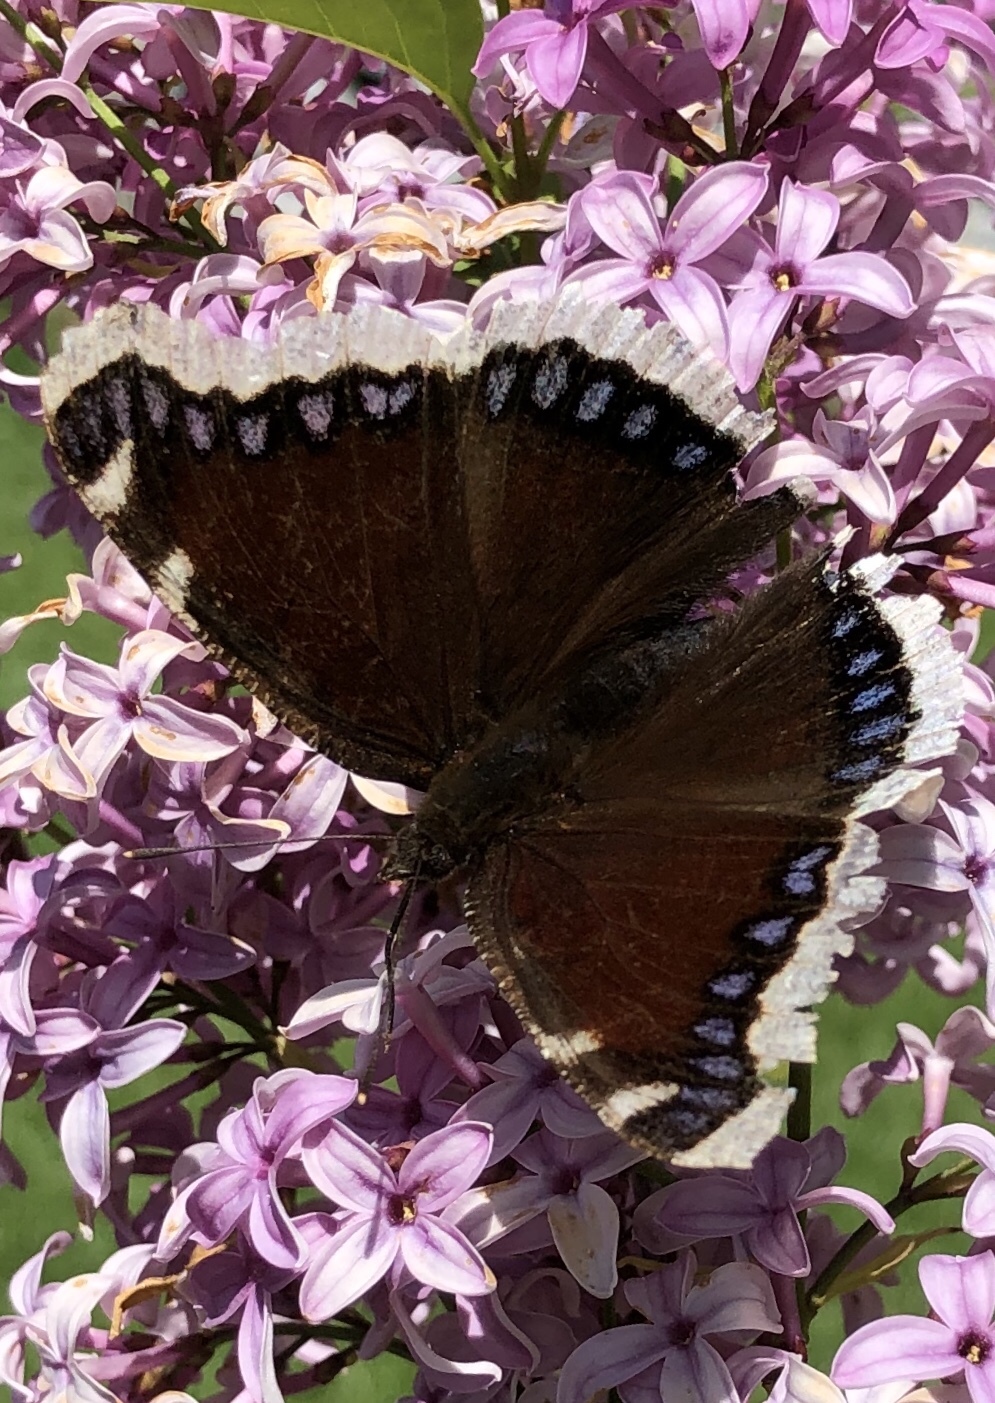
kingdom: Animalia
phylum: Arthropoda
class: Insecta
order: Lepidoptera
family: Nymphalidae
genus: Nymphalis
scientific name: Nymphalis antiopa
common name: Camberwell beauty
